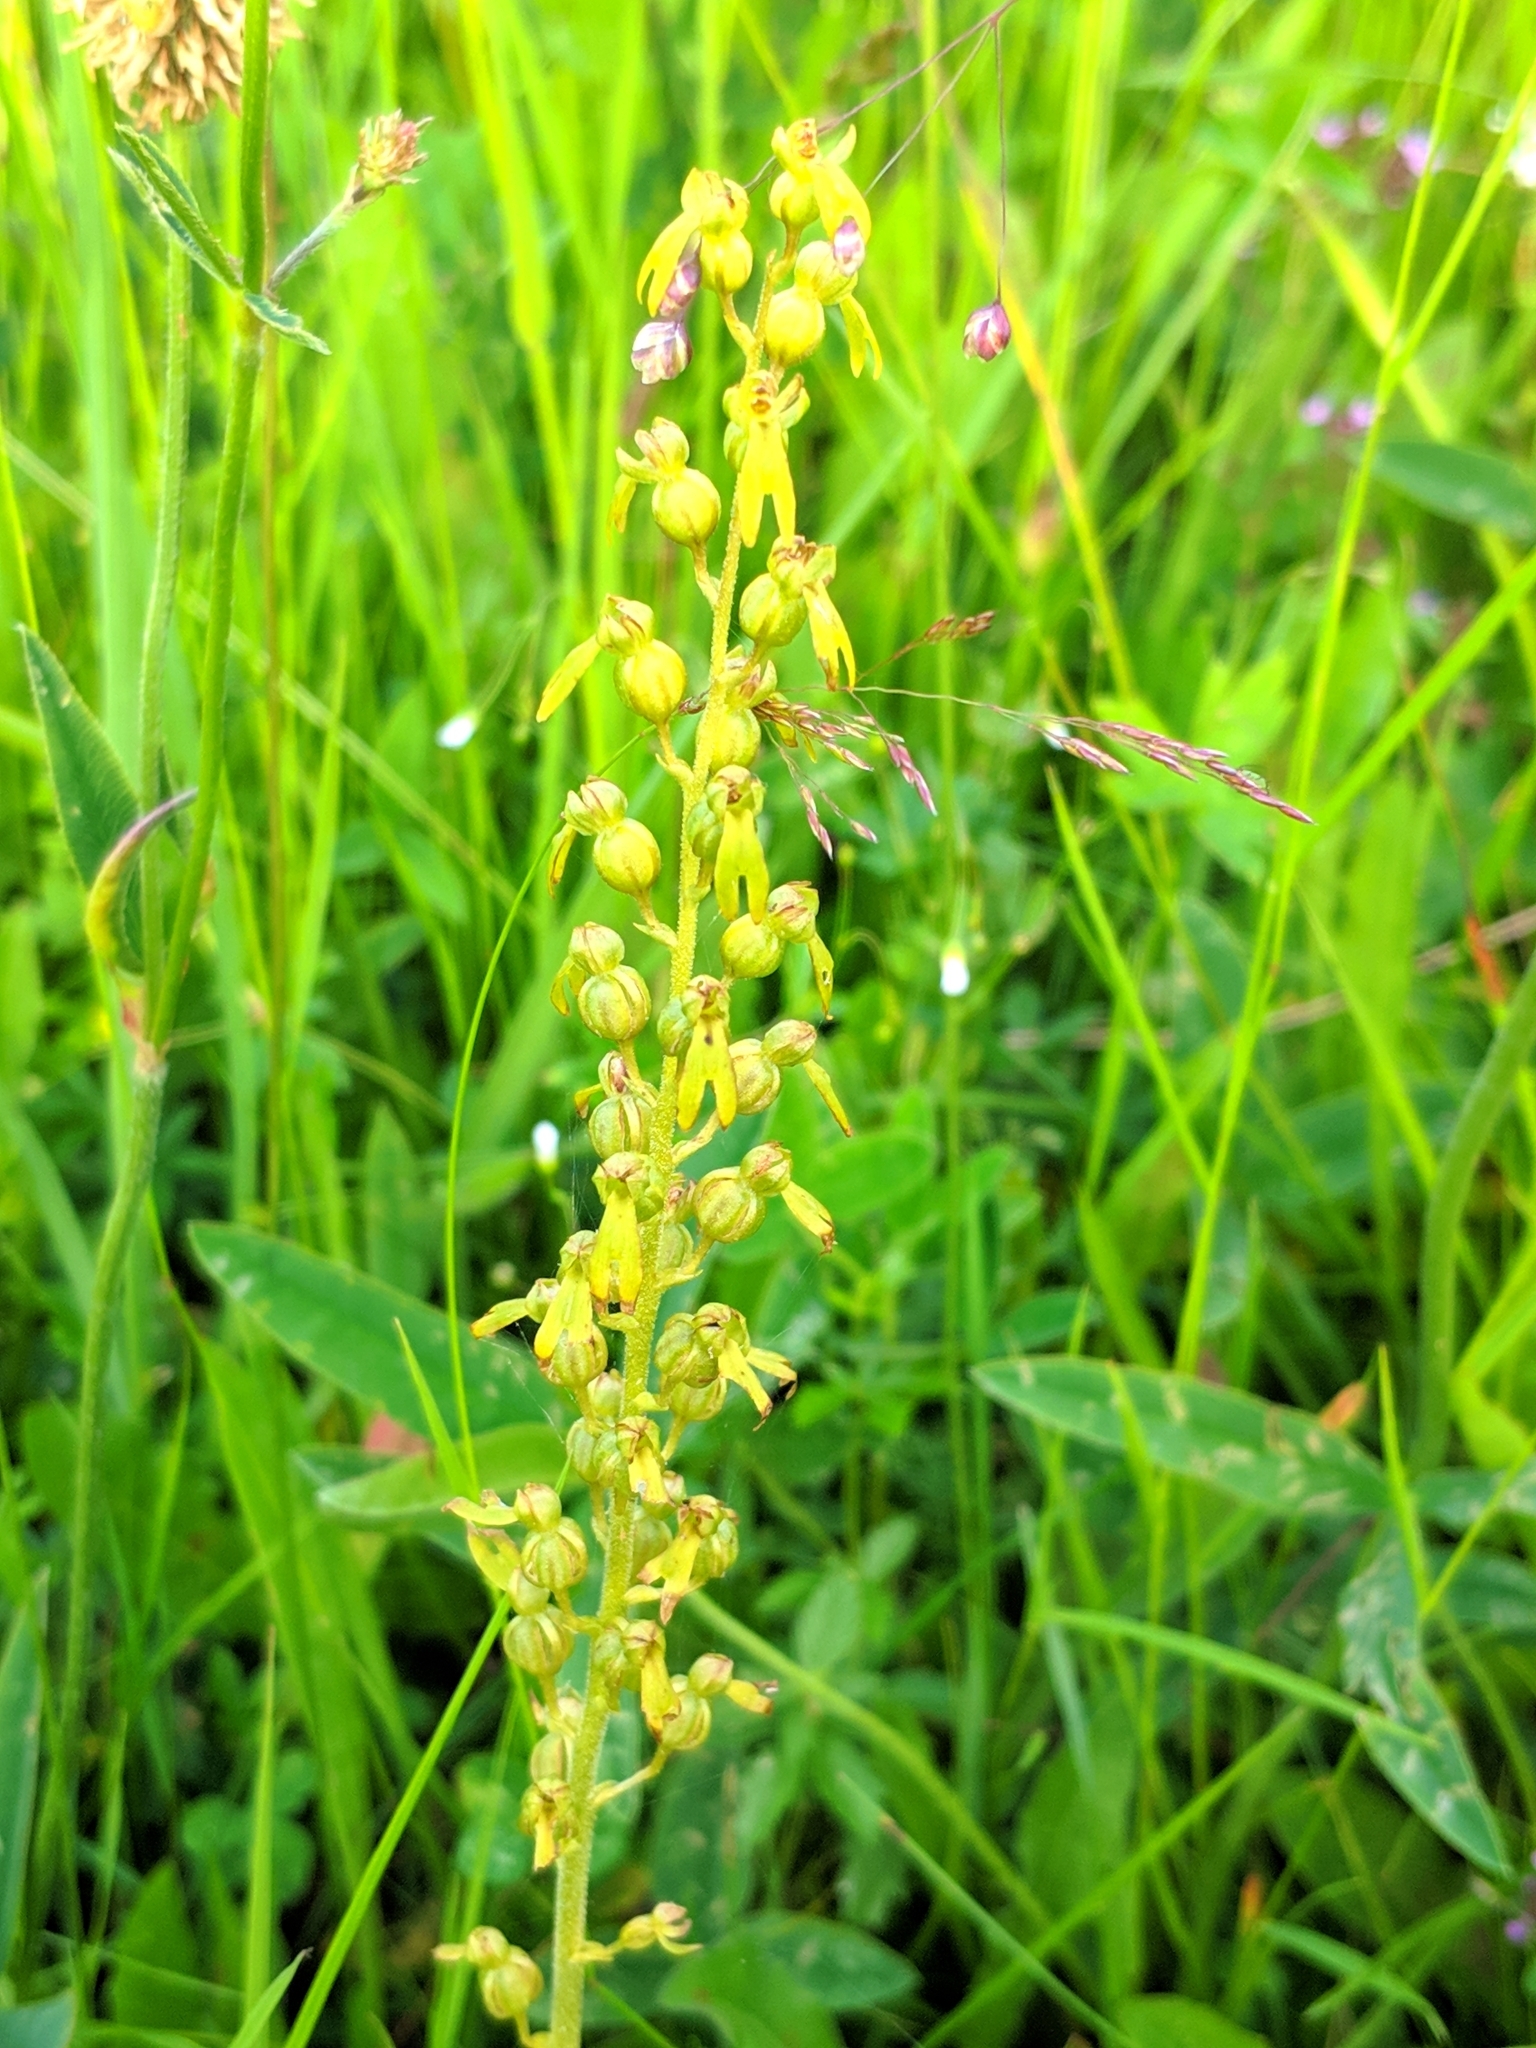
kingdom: Plantae
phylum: Tracheophyta
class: Liliopsida
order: Asparagales
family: Orchidaceae
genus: Neottia
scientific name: Neottia ovata
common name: Common twayblade
